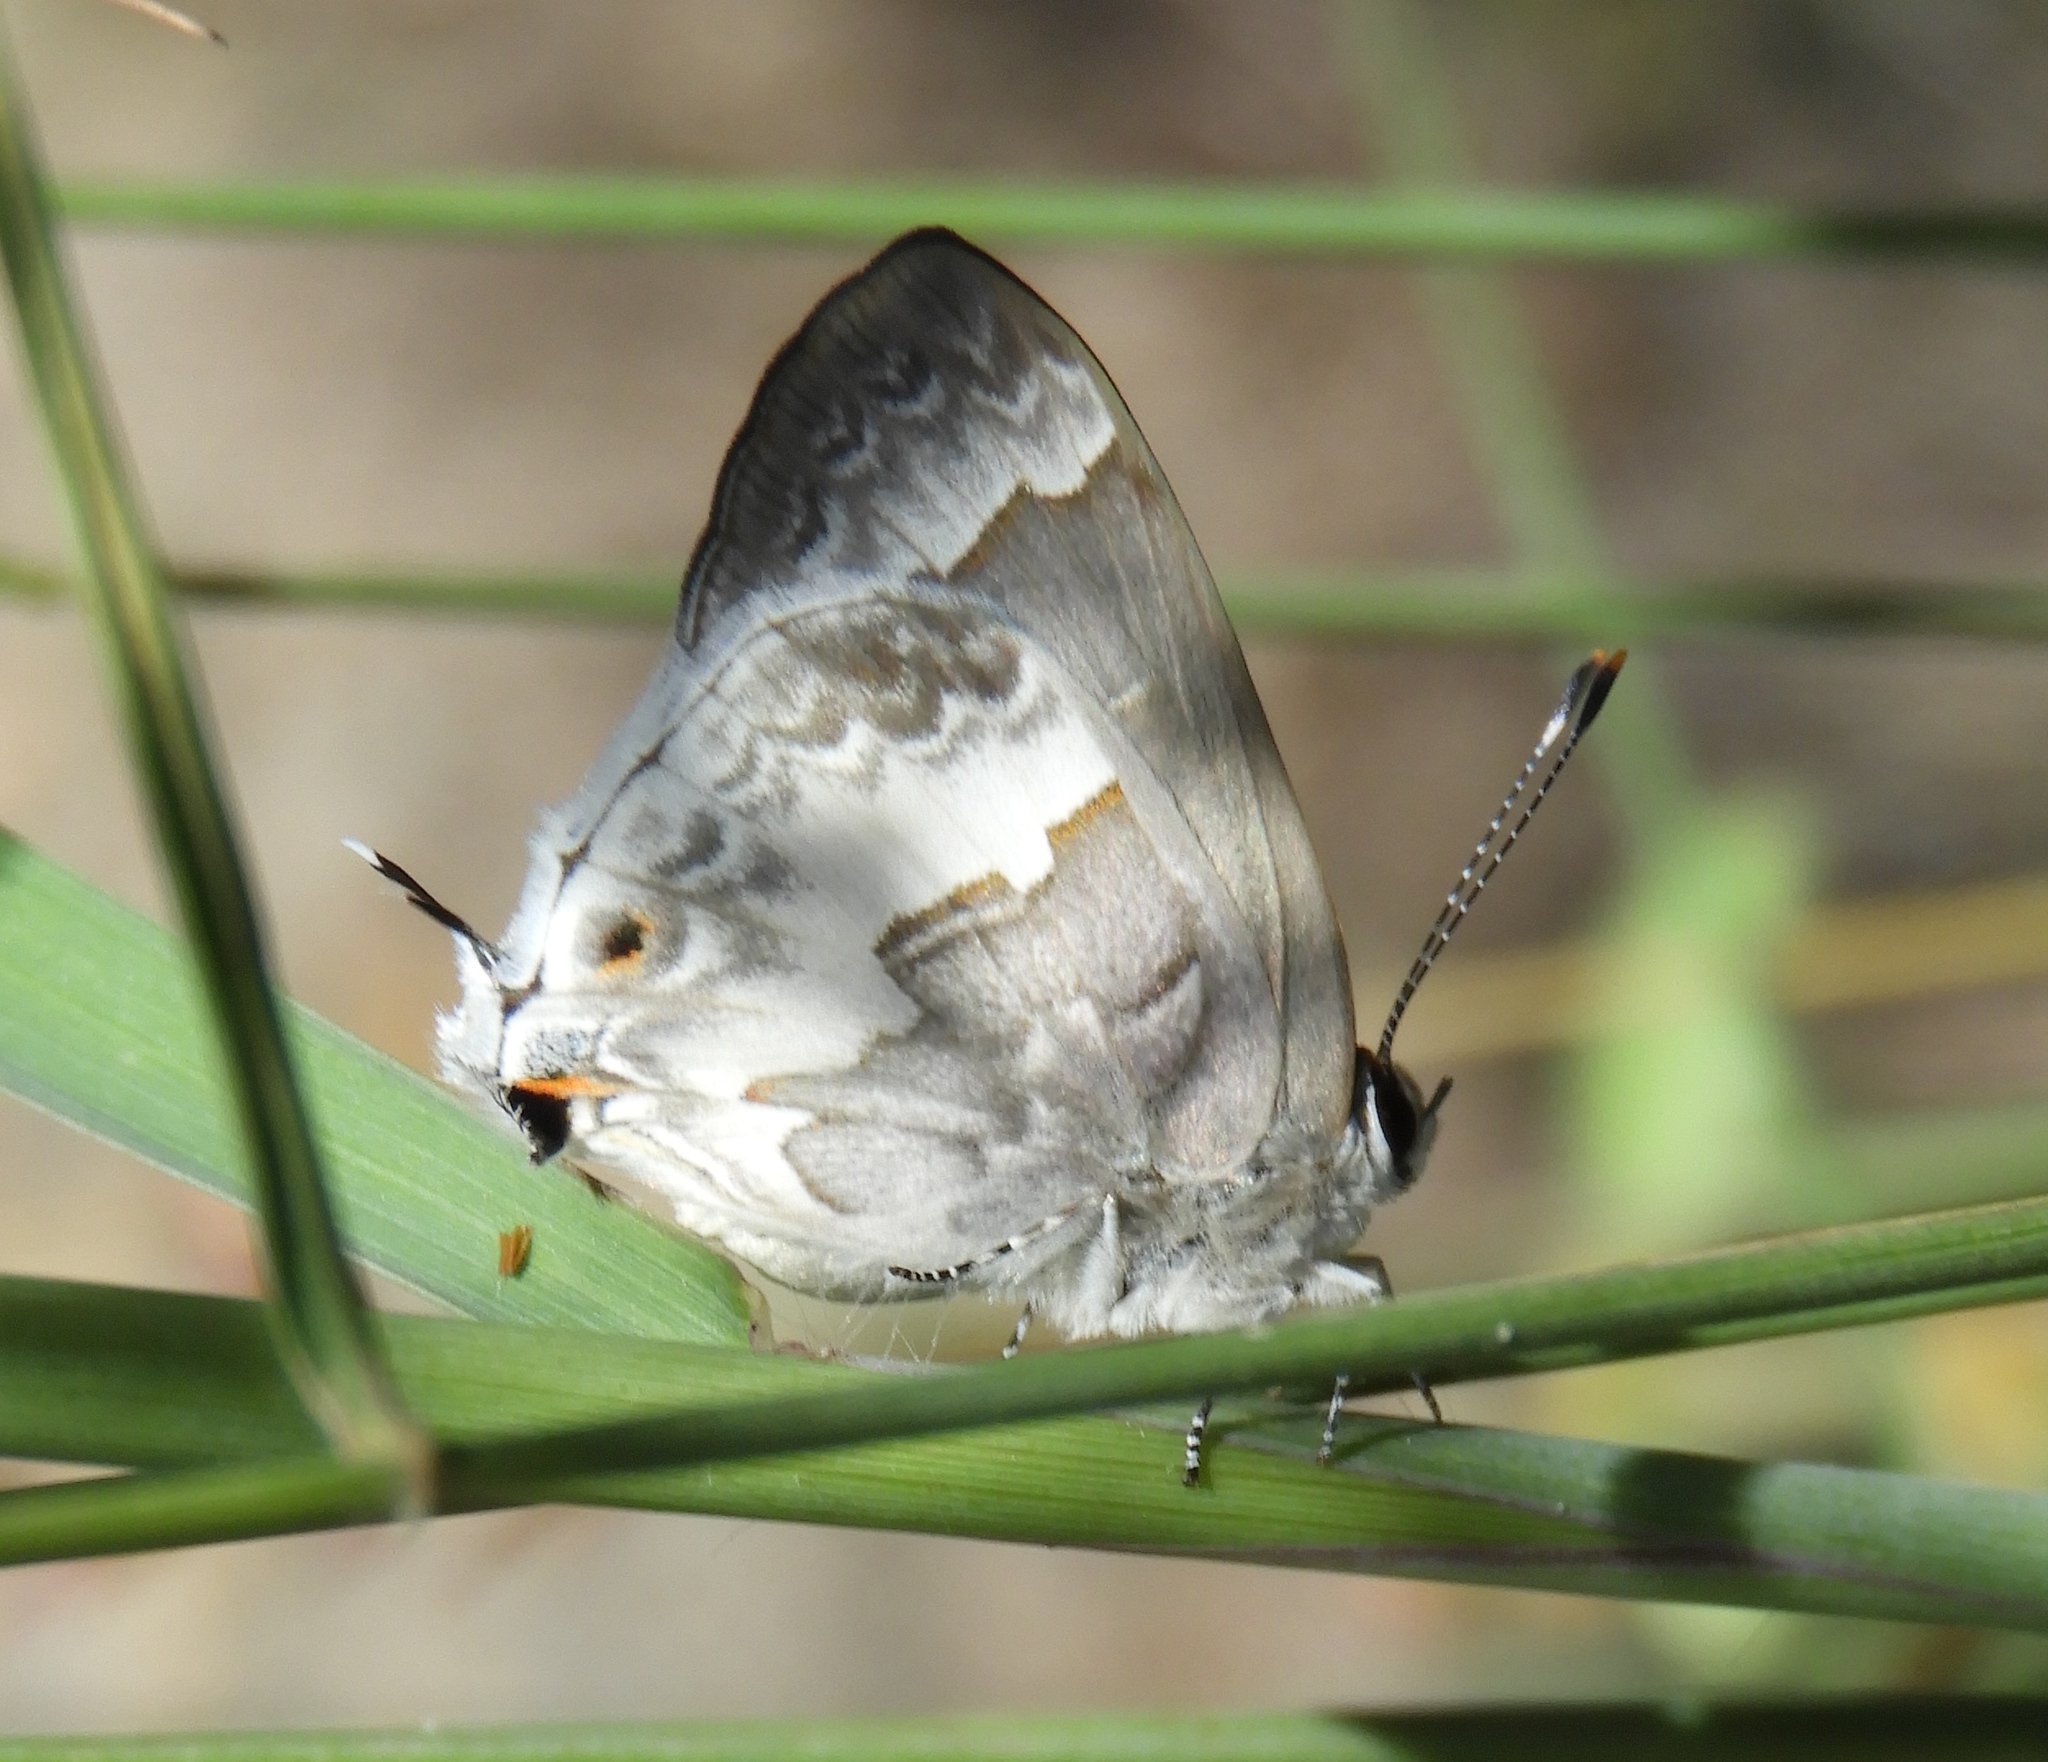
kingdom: Animalia
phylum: Arthropoda
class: Insecta
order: Lepidoptera
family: Lycaenidae
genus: Strymon
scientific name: Strymon albata
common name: White scrub-hairstreak
